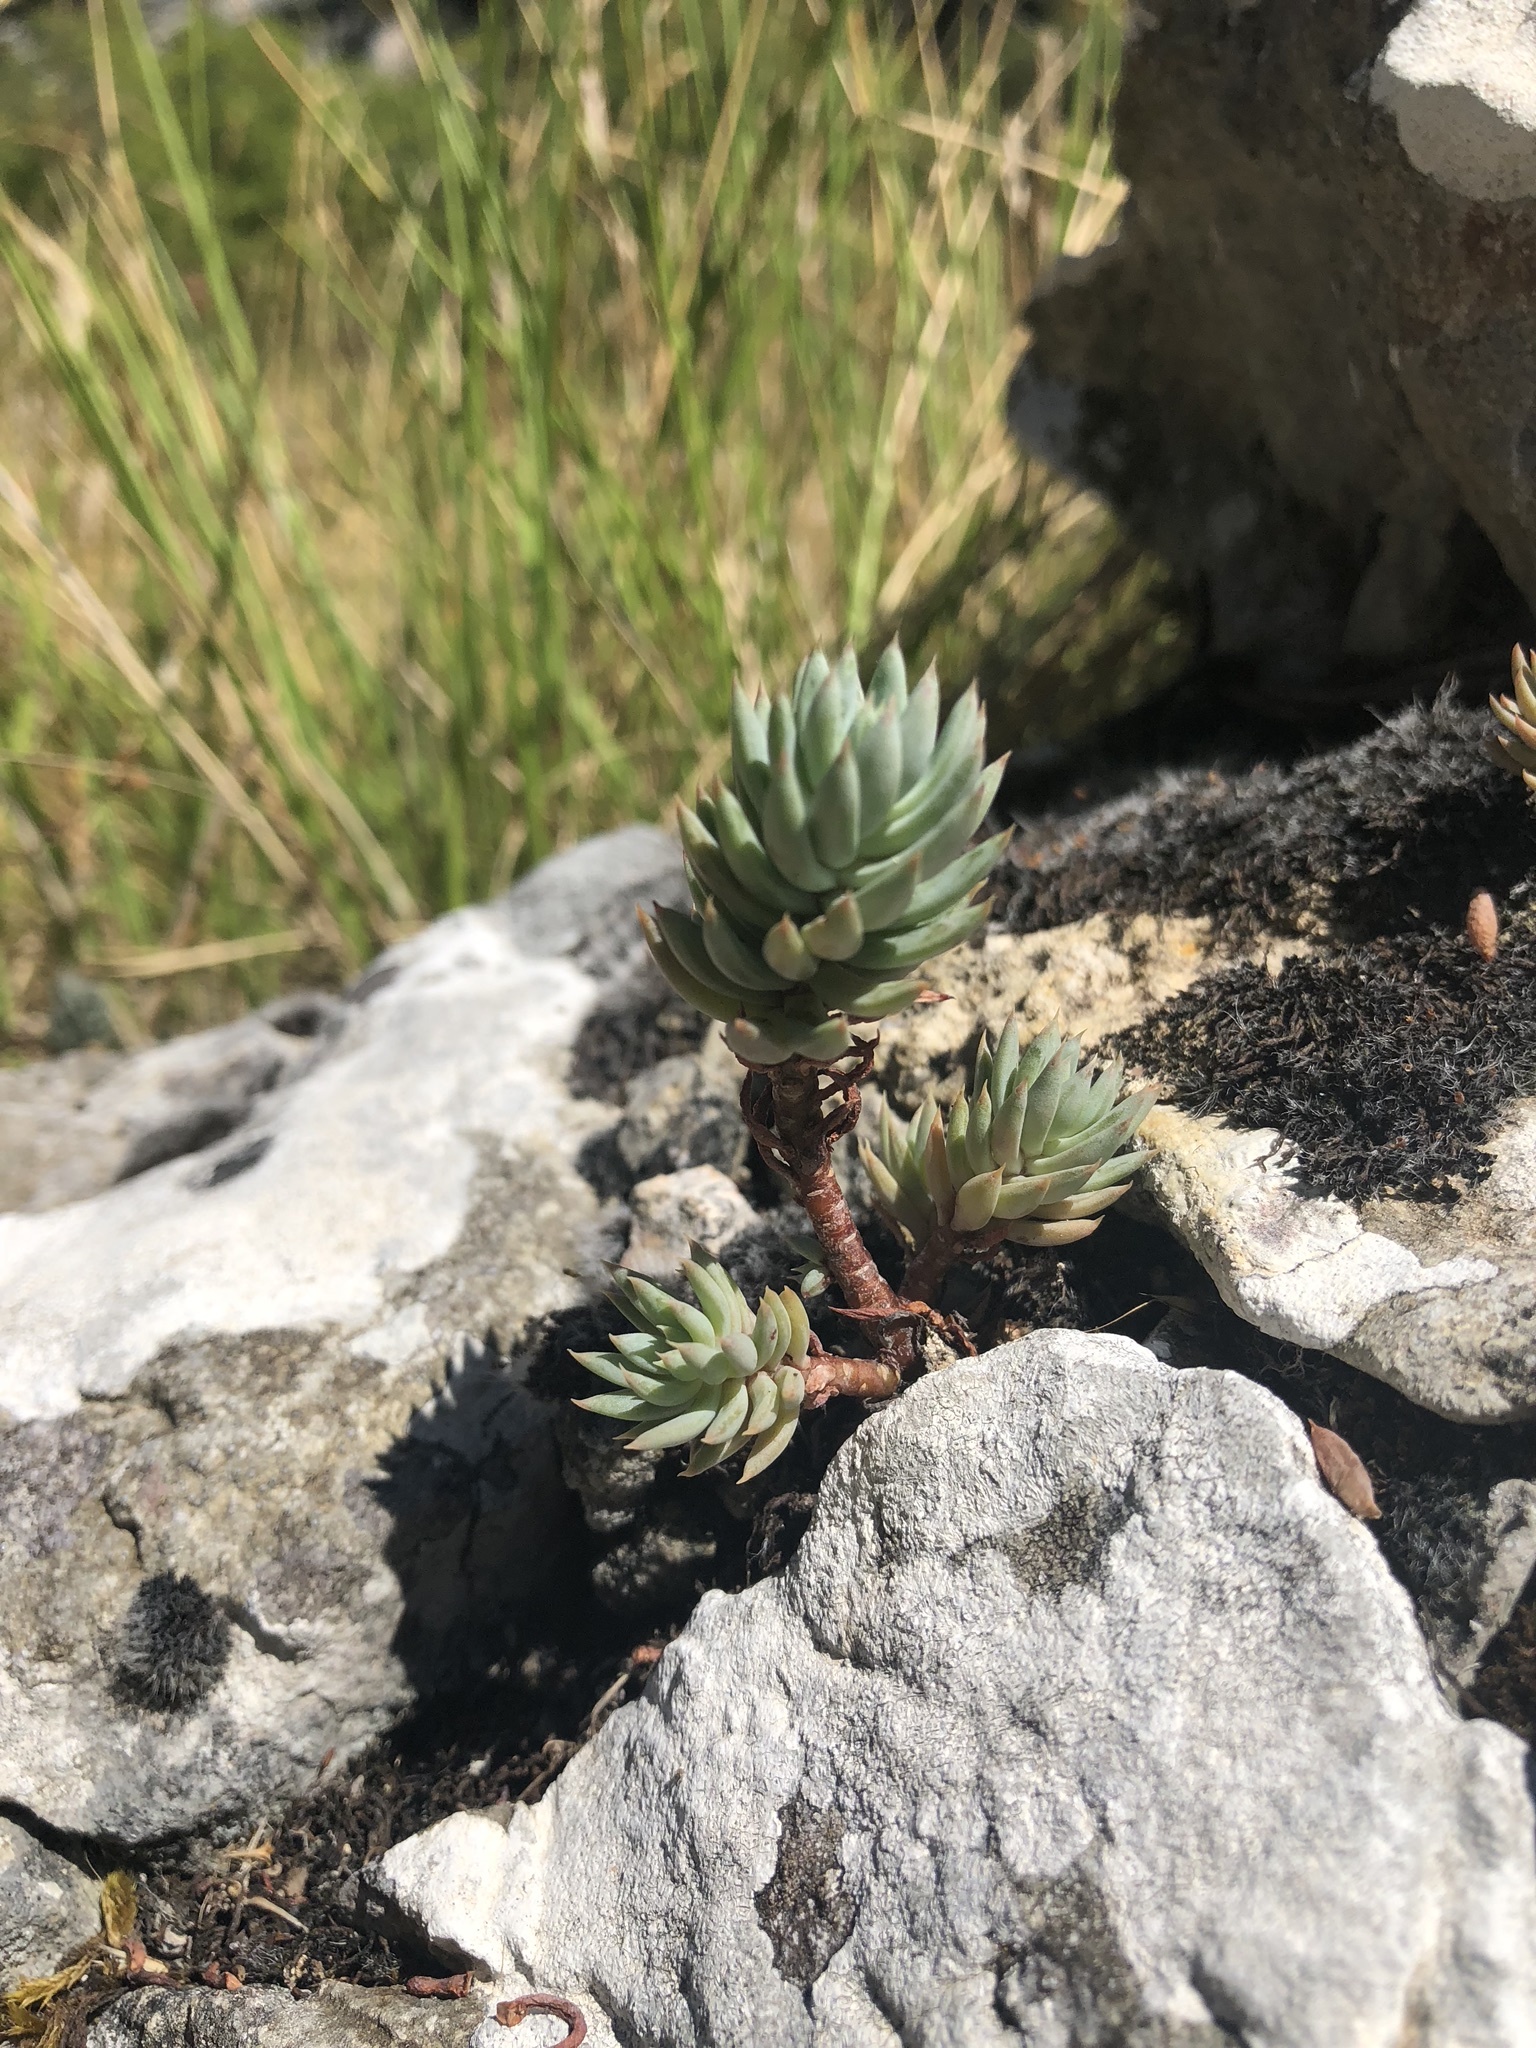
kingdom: Plantae
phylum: Tracheophyta
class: Magnoliopsida
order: Saxifragales
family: Crassulaceae
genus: Petrosedum
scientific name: Petrosedum sediforme
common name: Pale stonecrop
